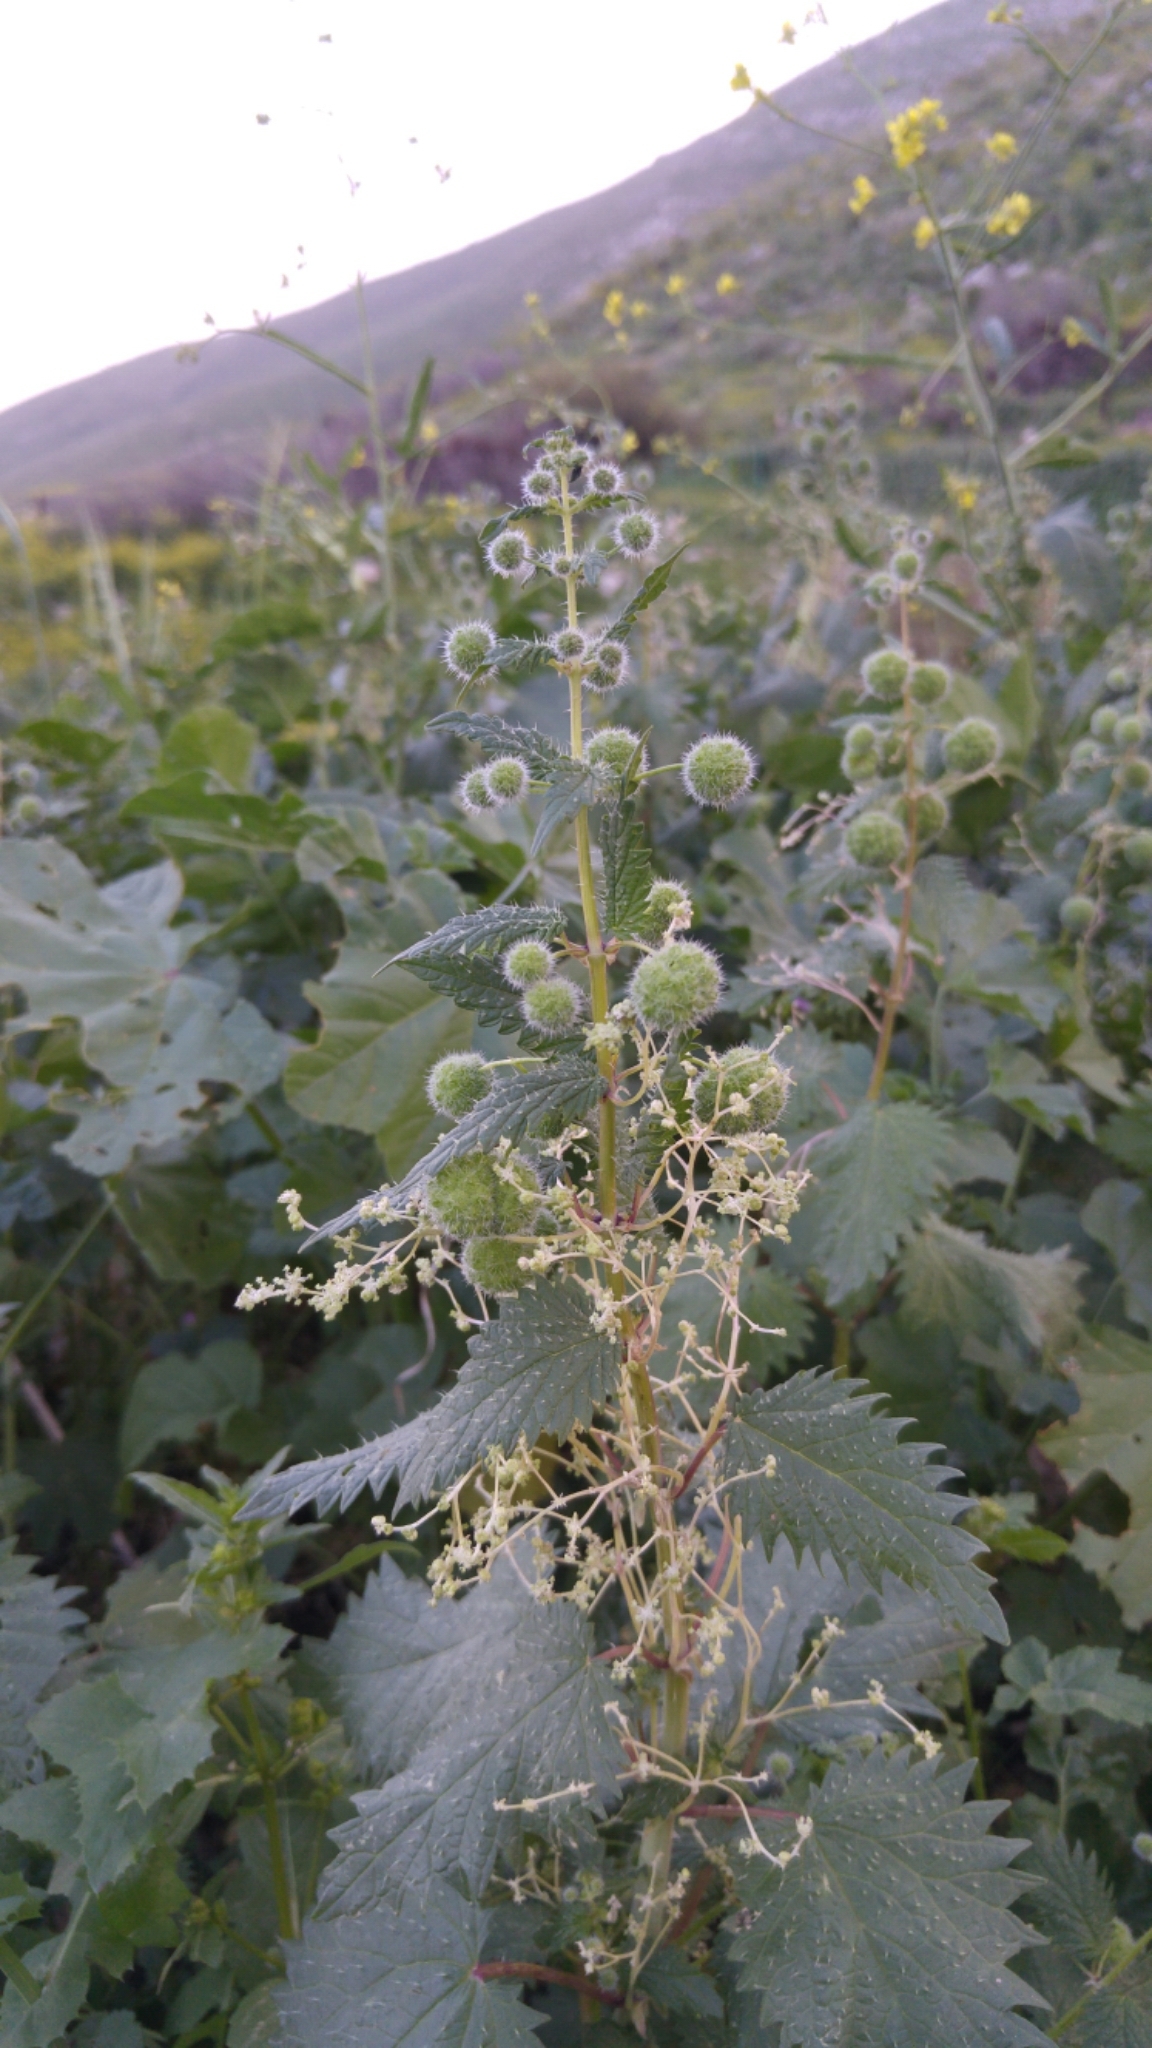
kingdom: Plantae
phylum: Tracheophyta
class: Magnoliopsida
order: Rosales
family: Urticaceae
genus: Urtica
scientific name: Urtica pilulifera
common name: Roman nettle
